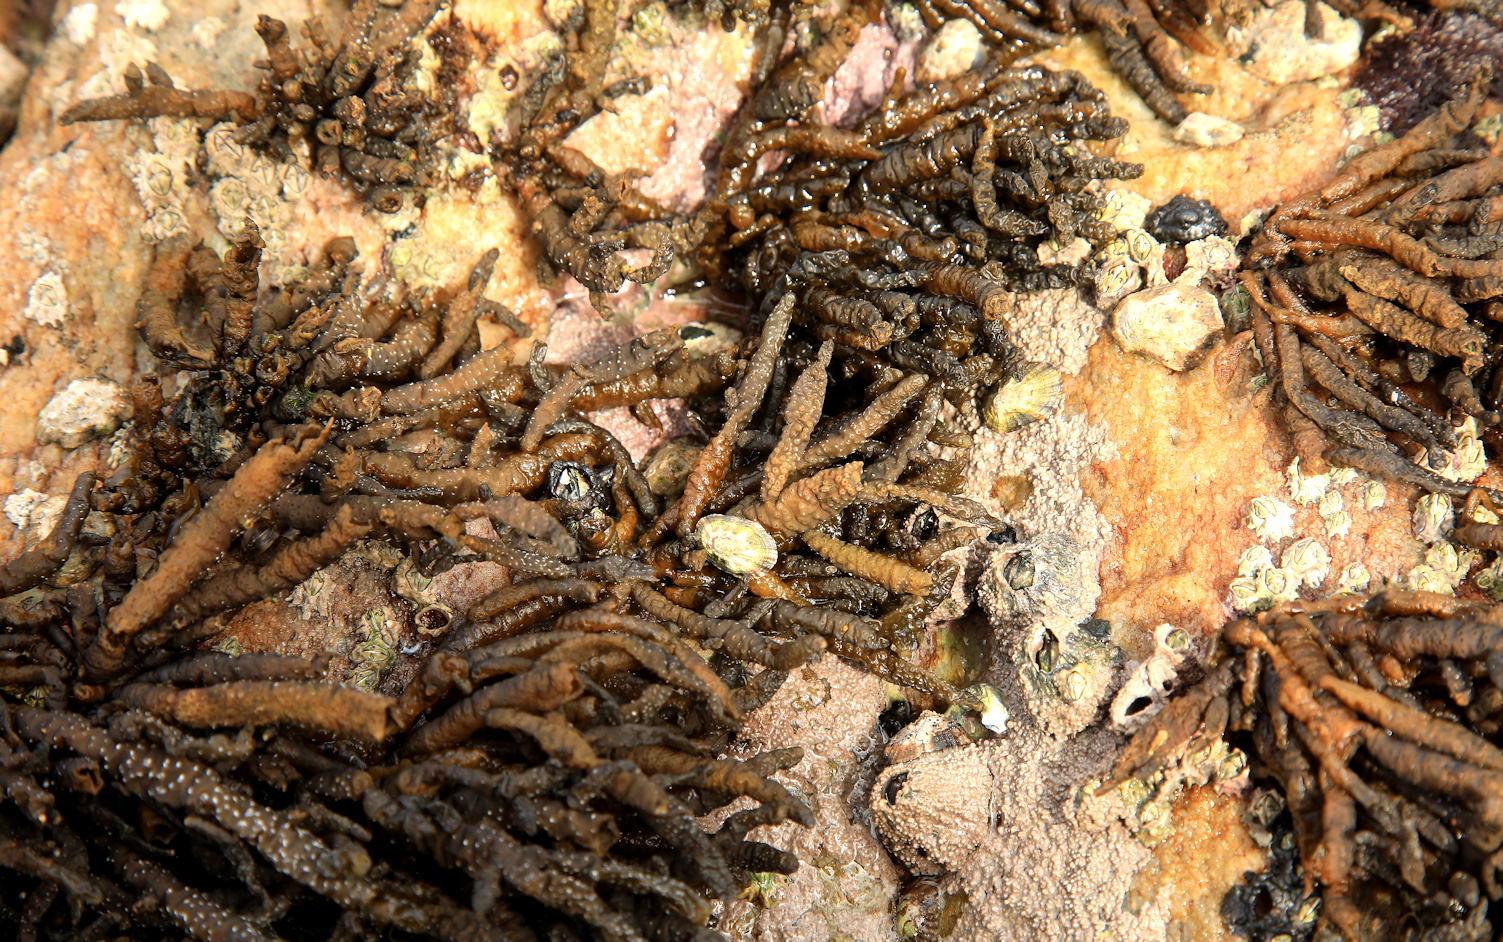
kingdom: Chromista
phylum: Ochrophyta
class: Phaeophyceae
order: Scytothamnales
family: Splachnidiaceae
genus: Splachnidium
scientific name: Splachnidium rugosum
